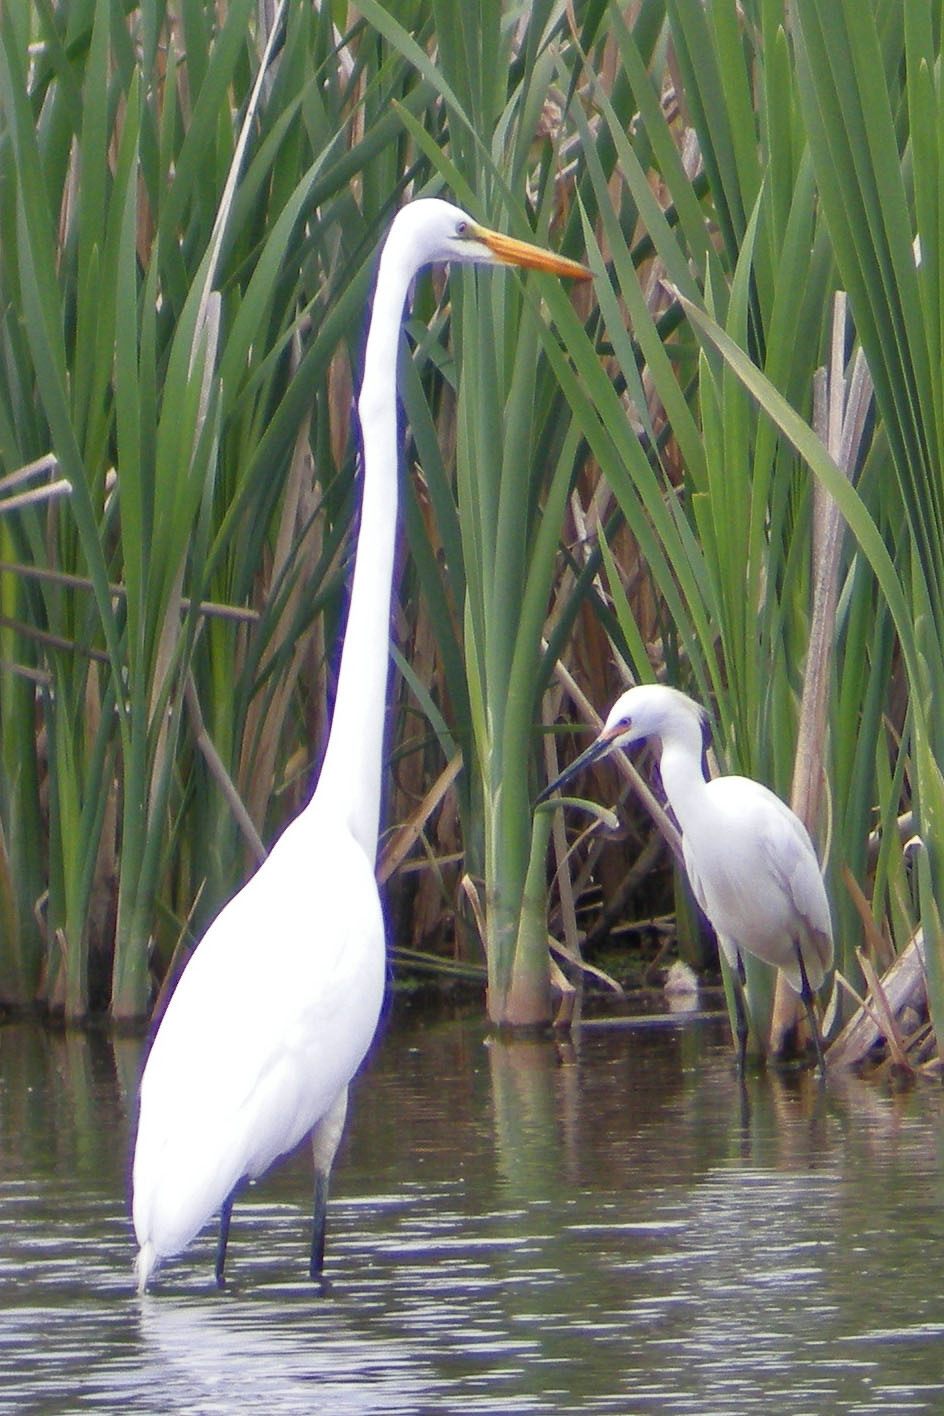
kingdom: Animalia
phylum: Chordata
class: Aves
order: Pelecaniformes
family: Ardeidae
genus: Egretta
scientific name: Egretta thula
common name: Snowy egret
